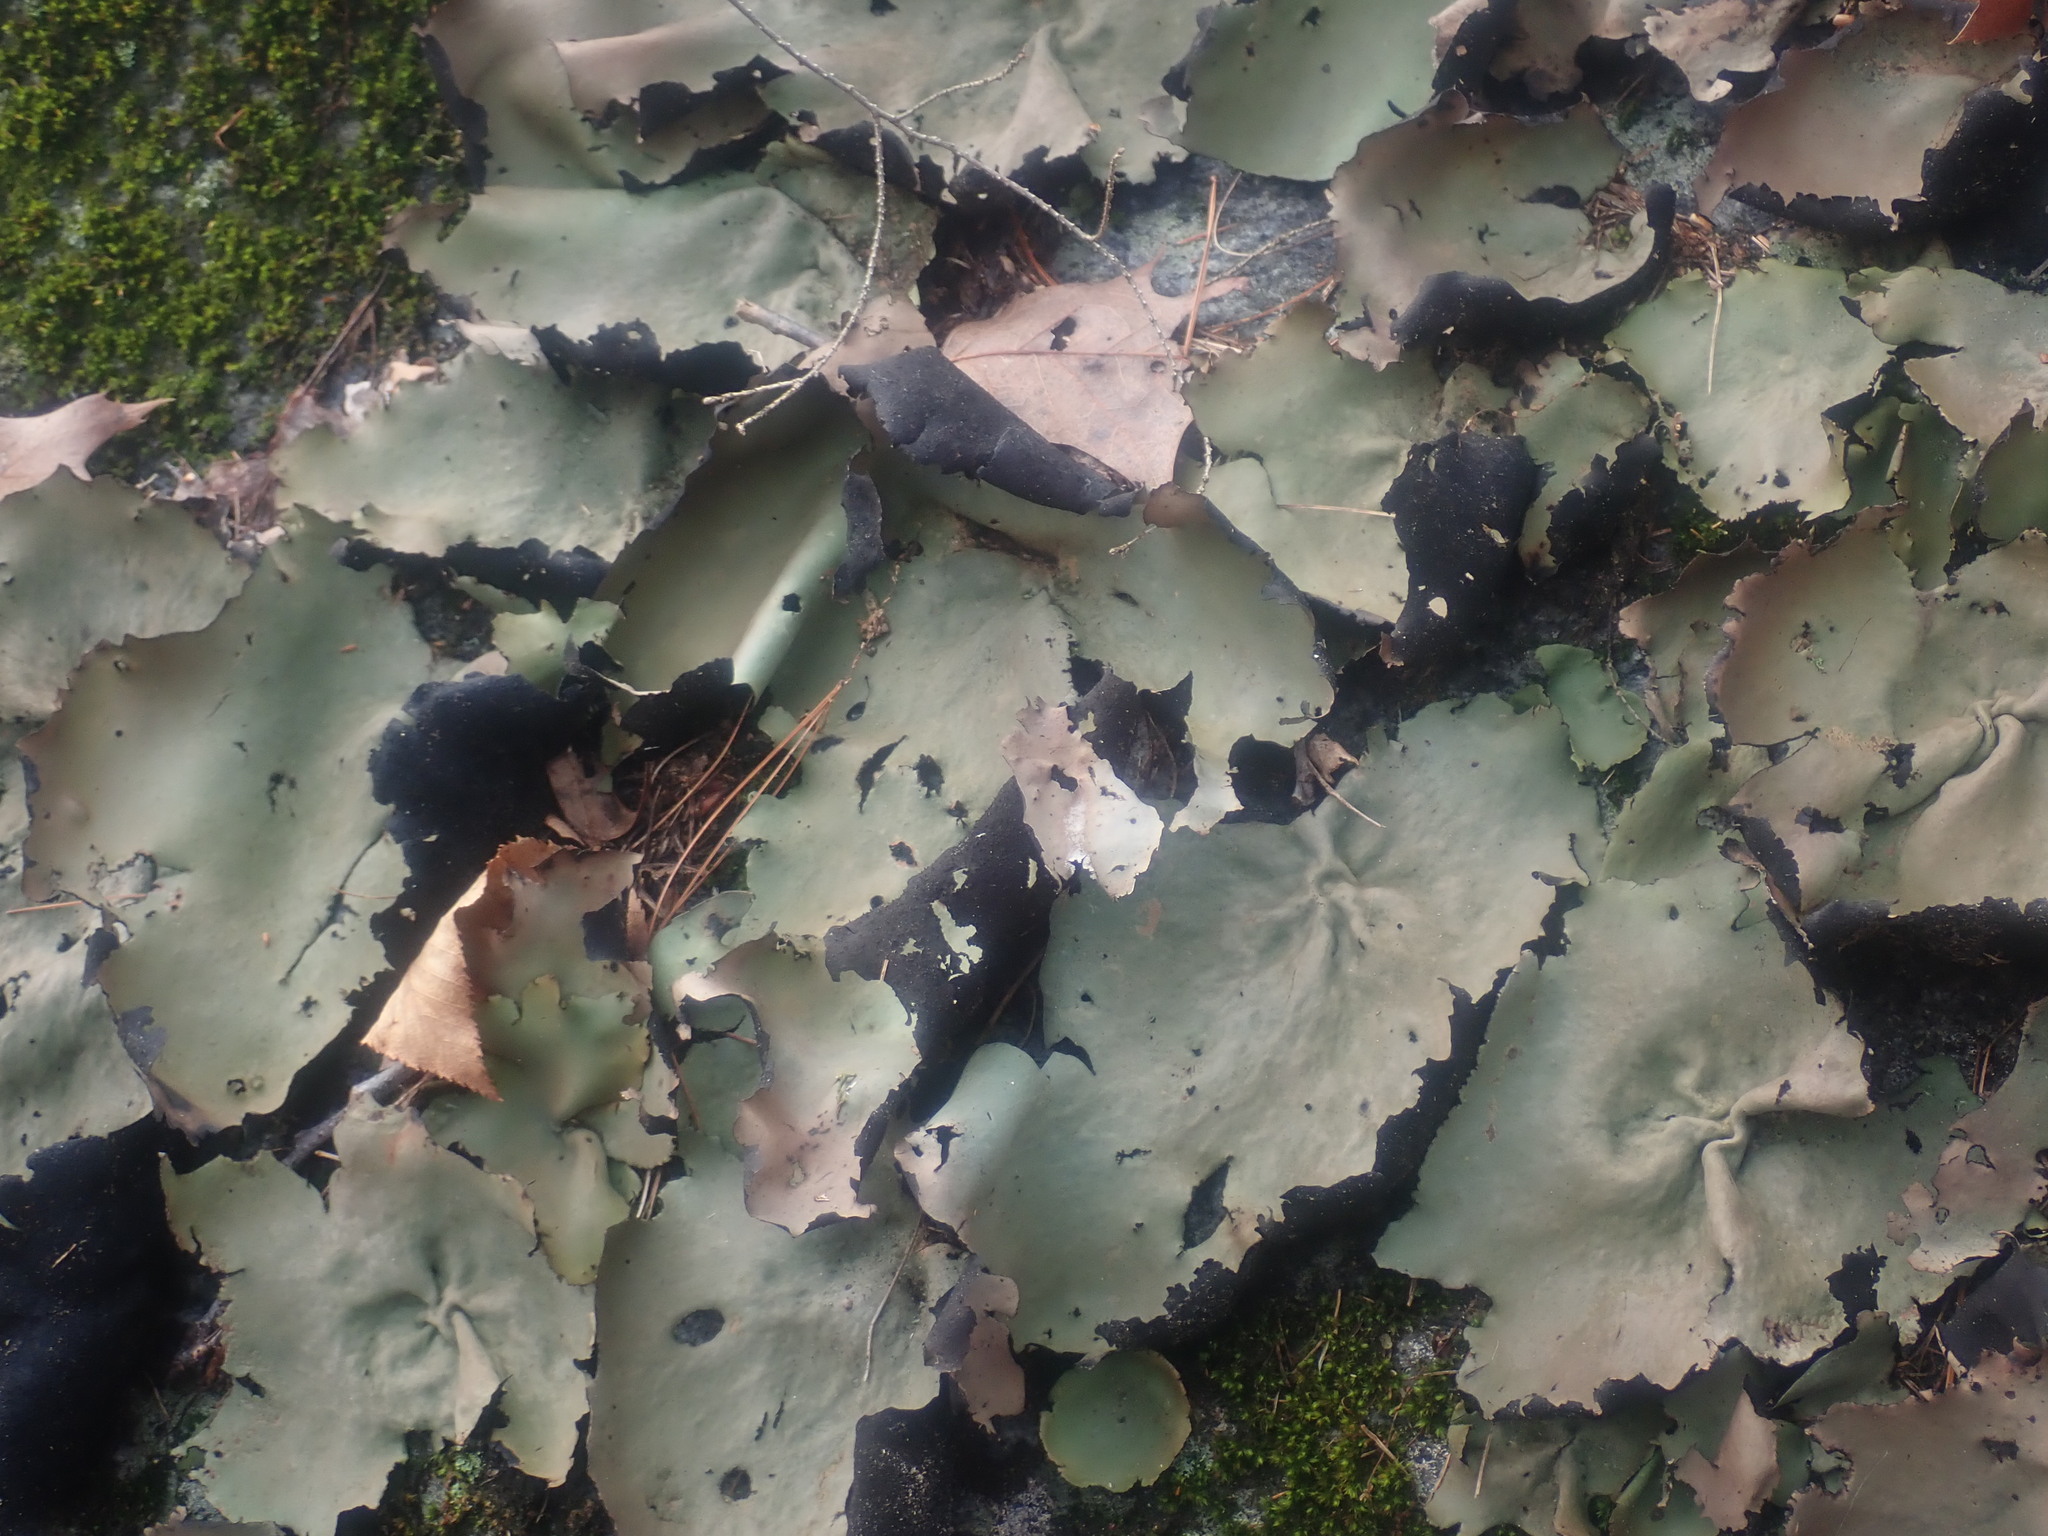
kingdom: Fungi
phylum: Ascomycota
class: Lecanoromycetes
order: Umbilicariales
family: Umbilicariaceae
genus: Umbilicaria
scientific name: Umbilicaria mammulata
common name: Smooth rock tripe
